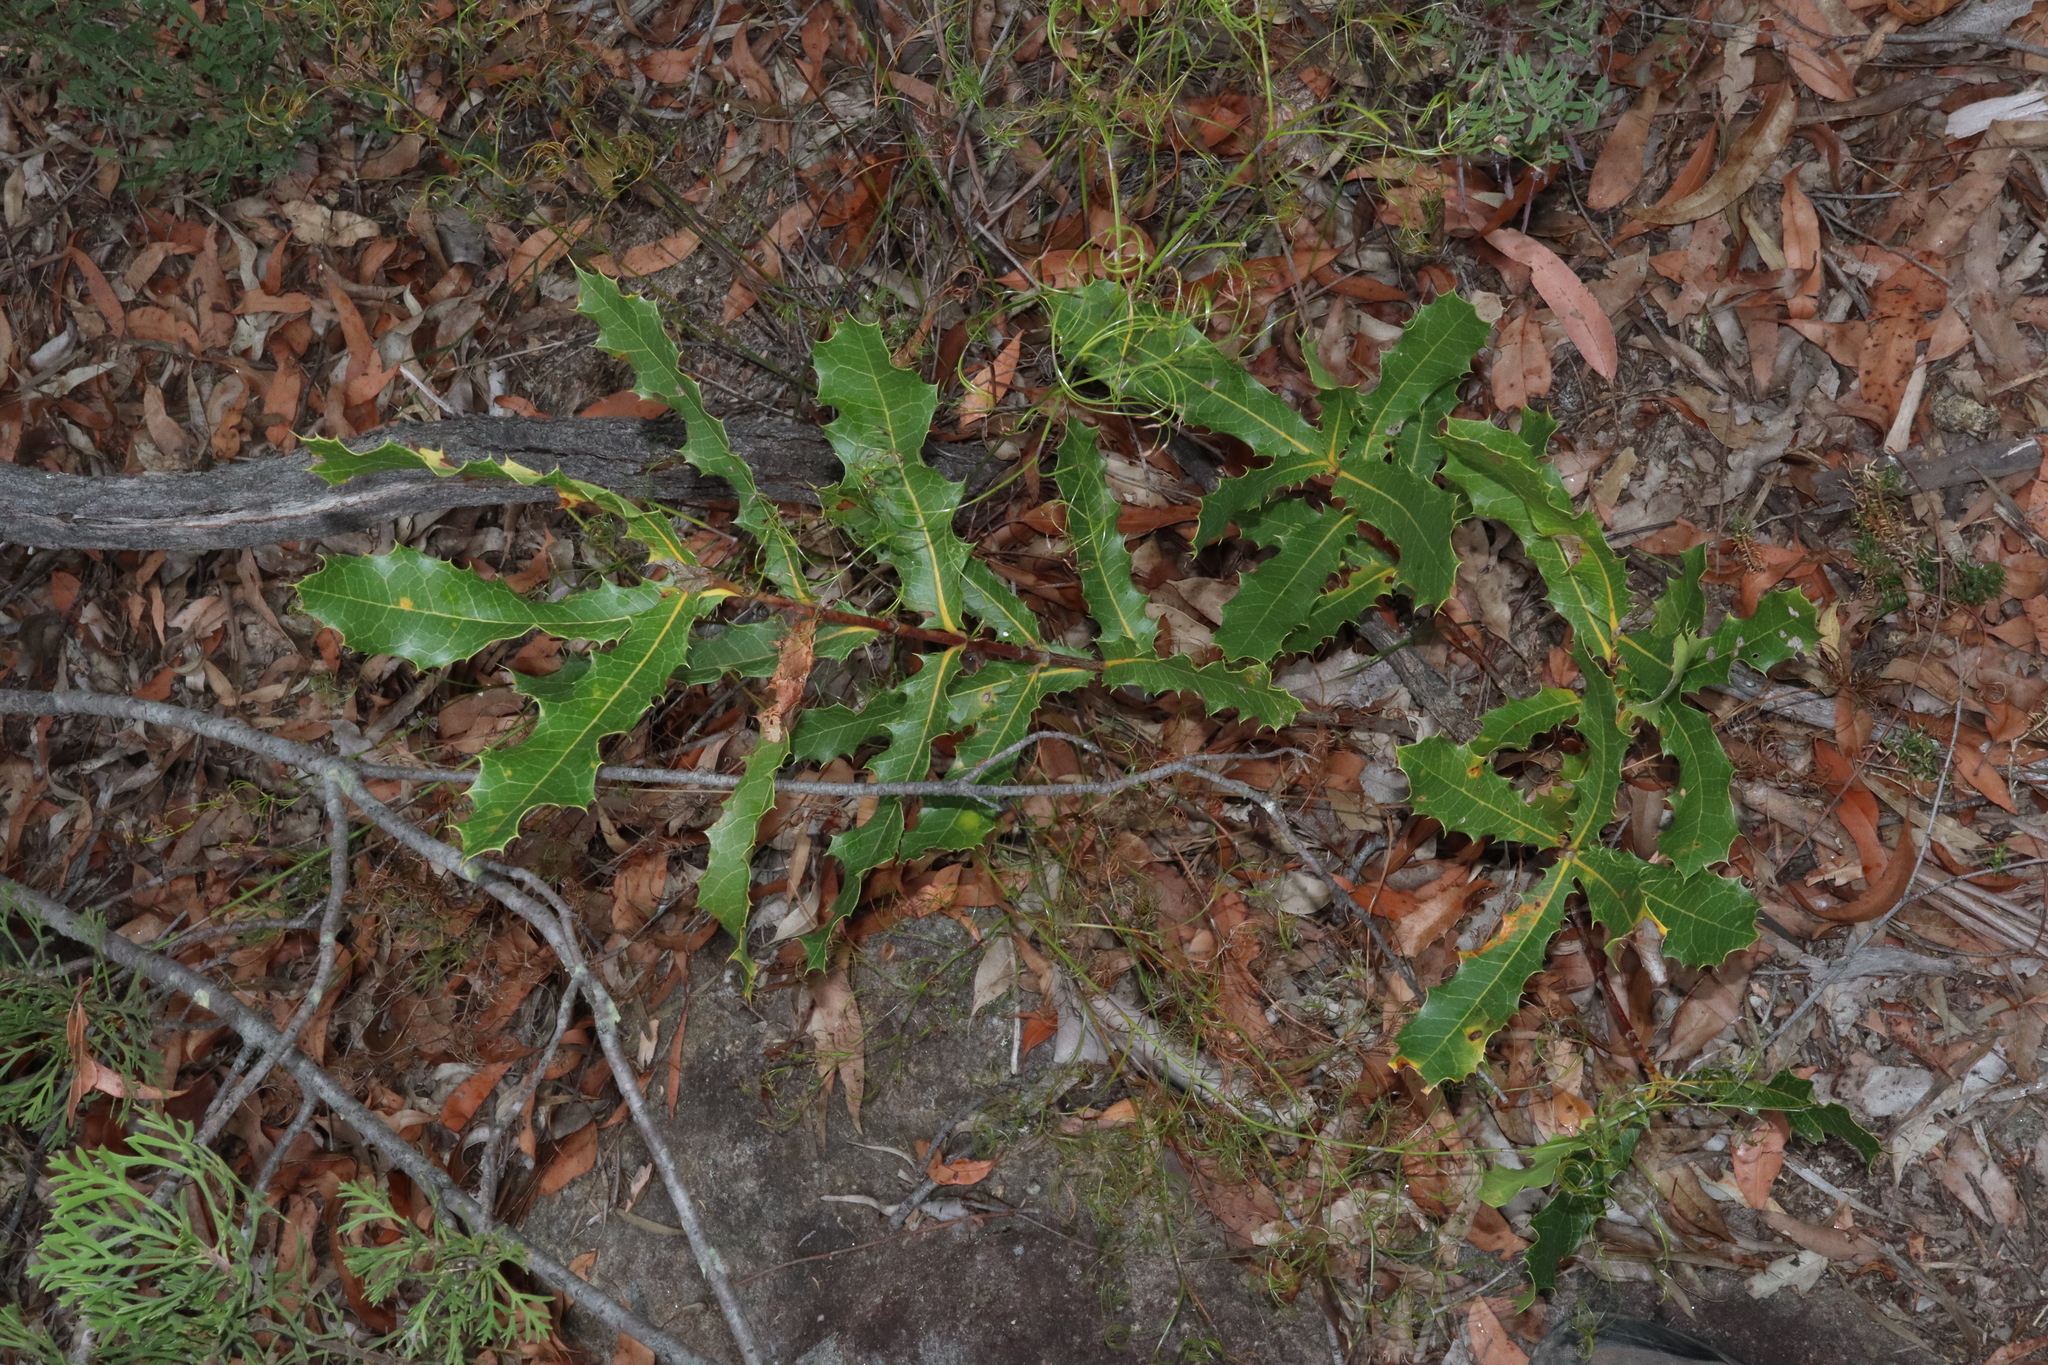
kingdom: Plantae
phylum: Tracheophyta
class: Magnoliopsida
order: Proteales
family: Proteaceae
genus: Xylomelum
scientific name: Xylomelum pyriforme
